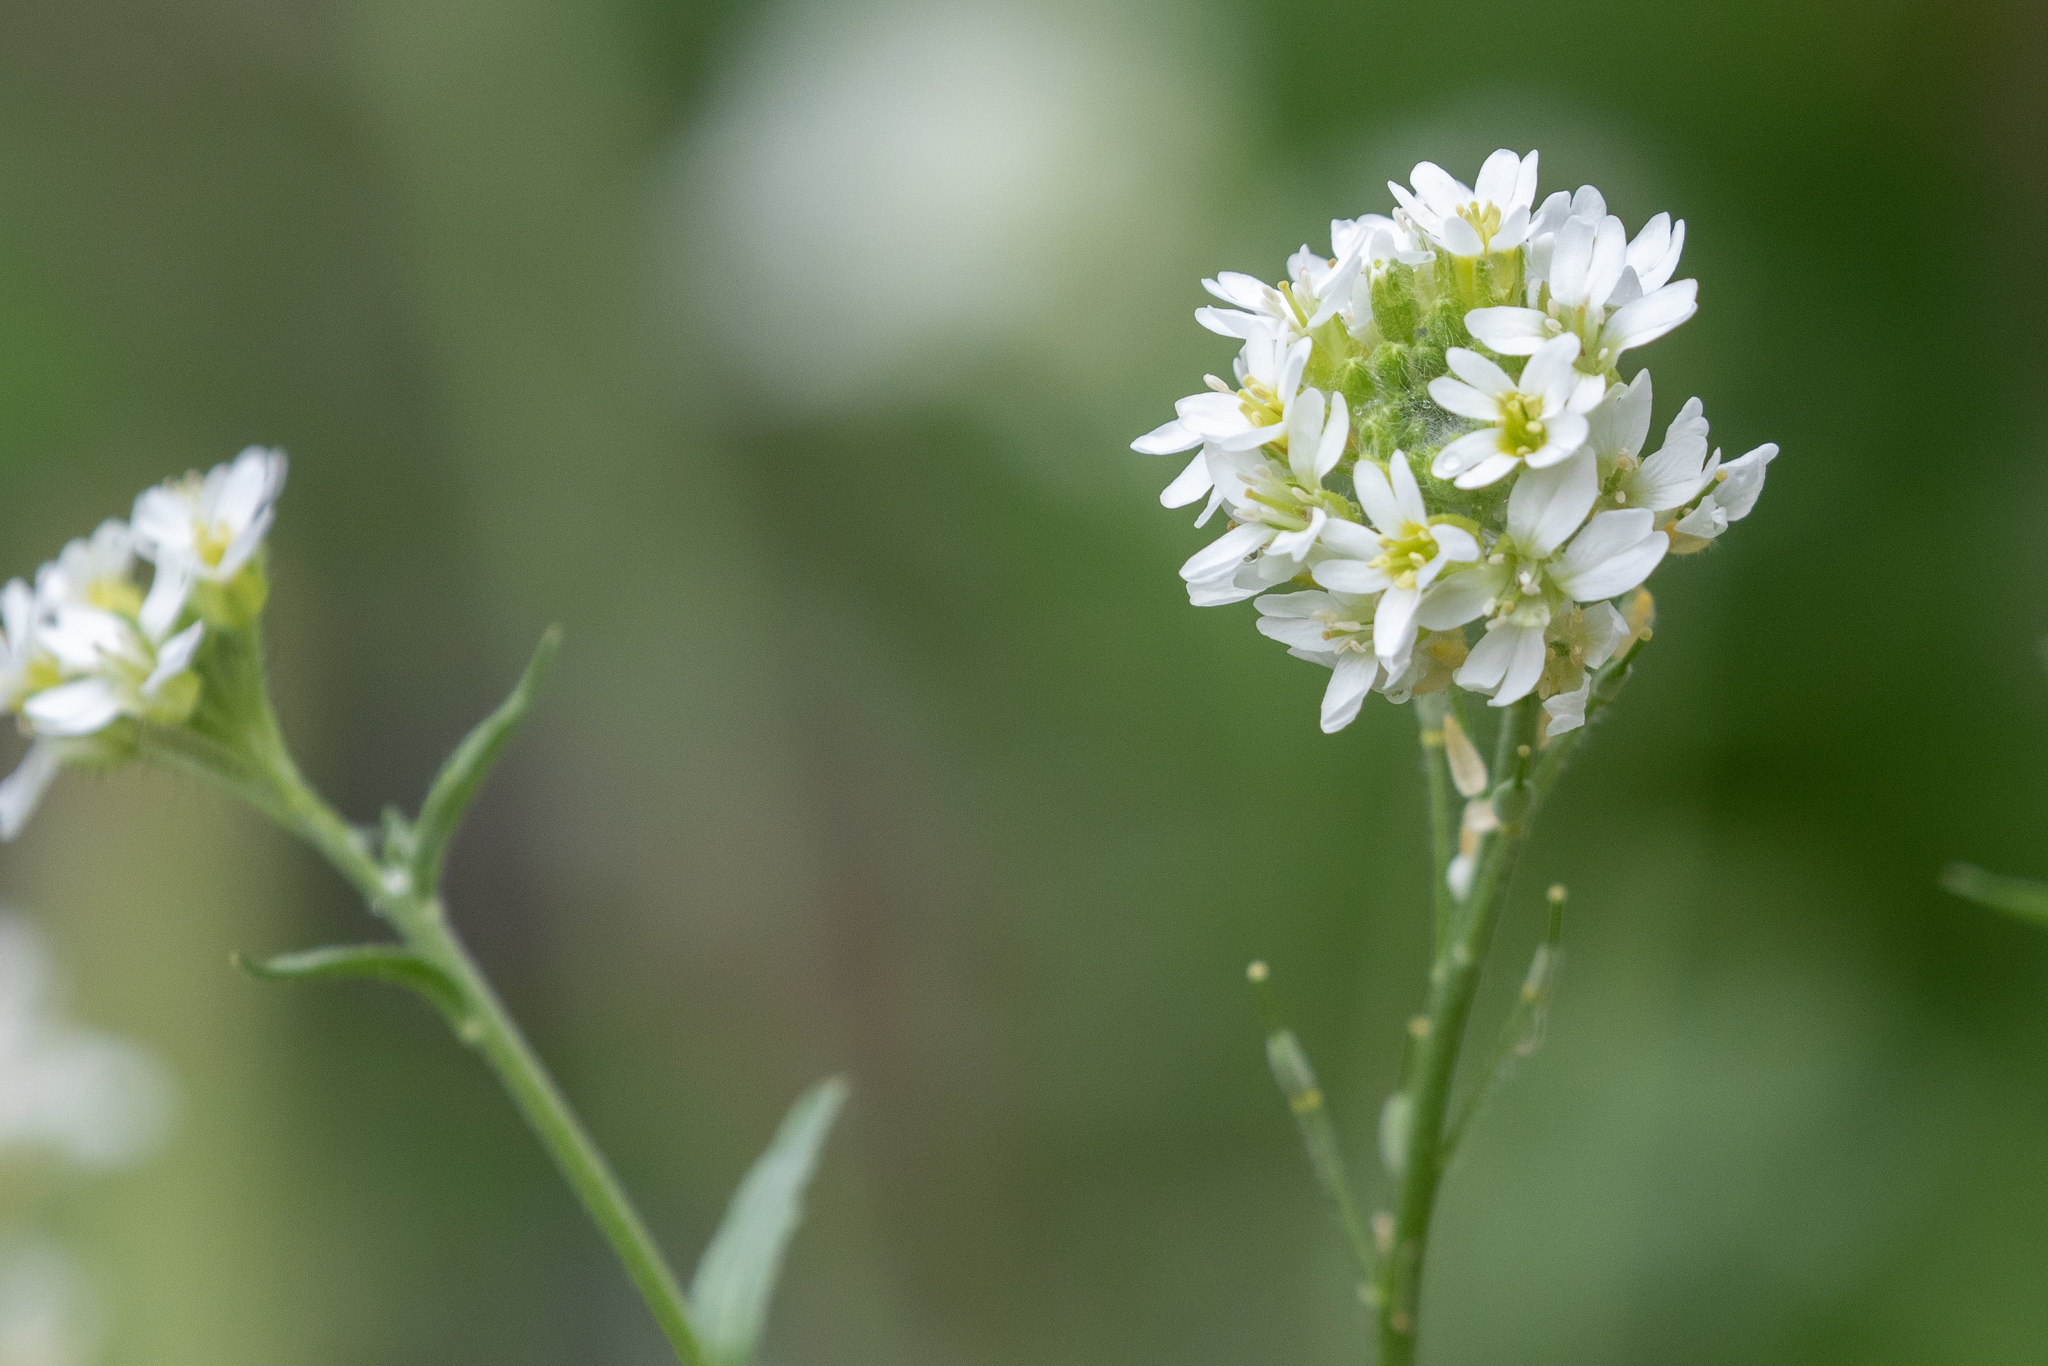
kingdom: Plantae
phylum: Tracheophyta
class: Magnoliopsida
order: Brassicales
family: Brassicaceae
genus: Berteroa
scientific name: Berteroa incana
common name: Hoary alison
